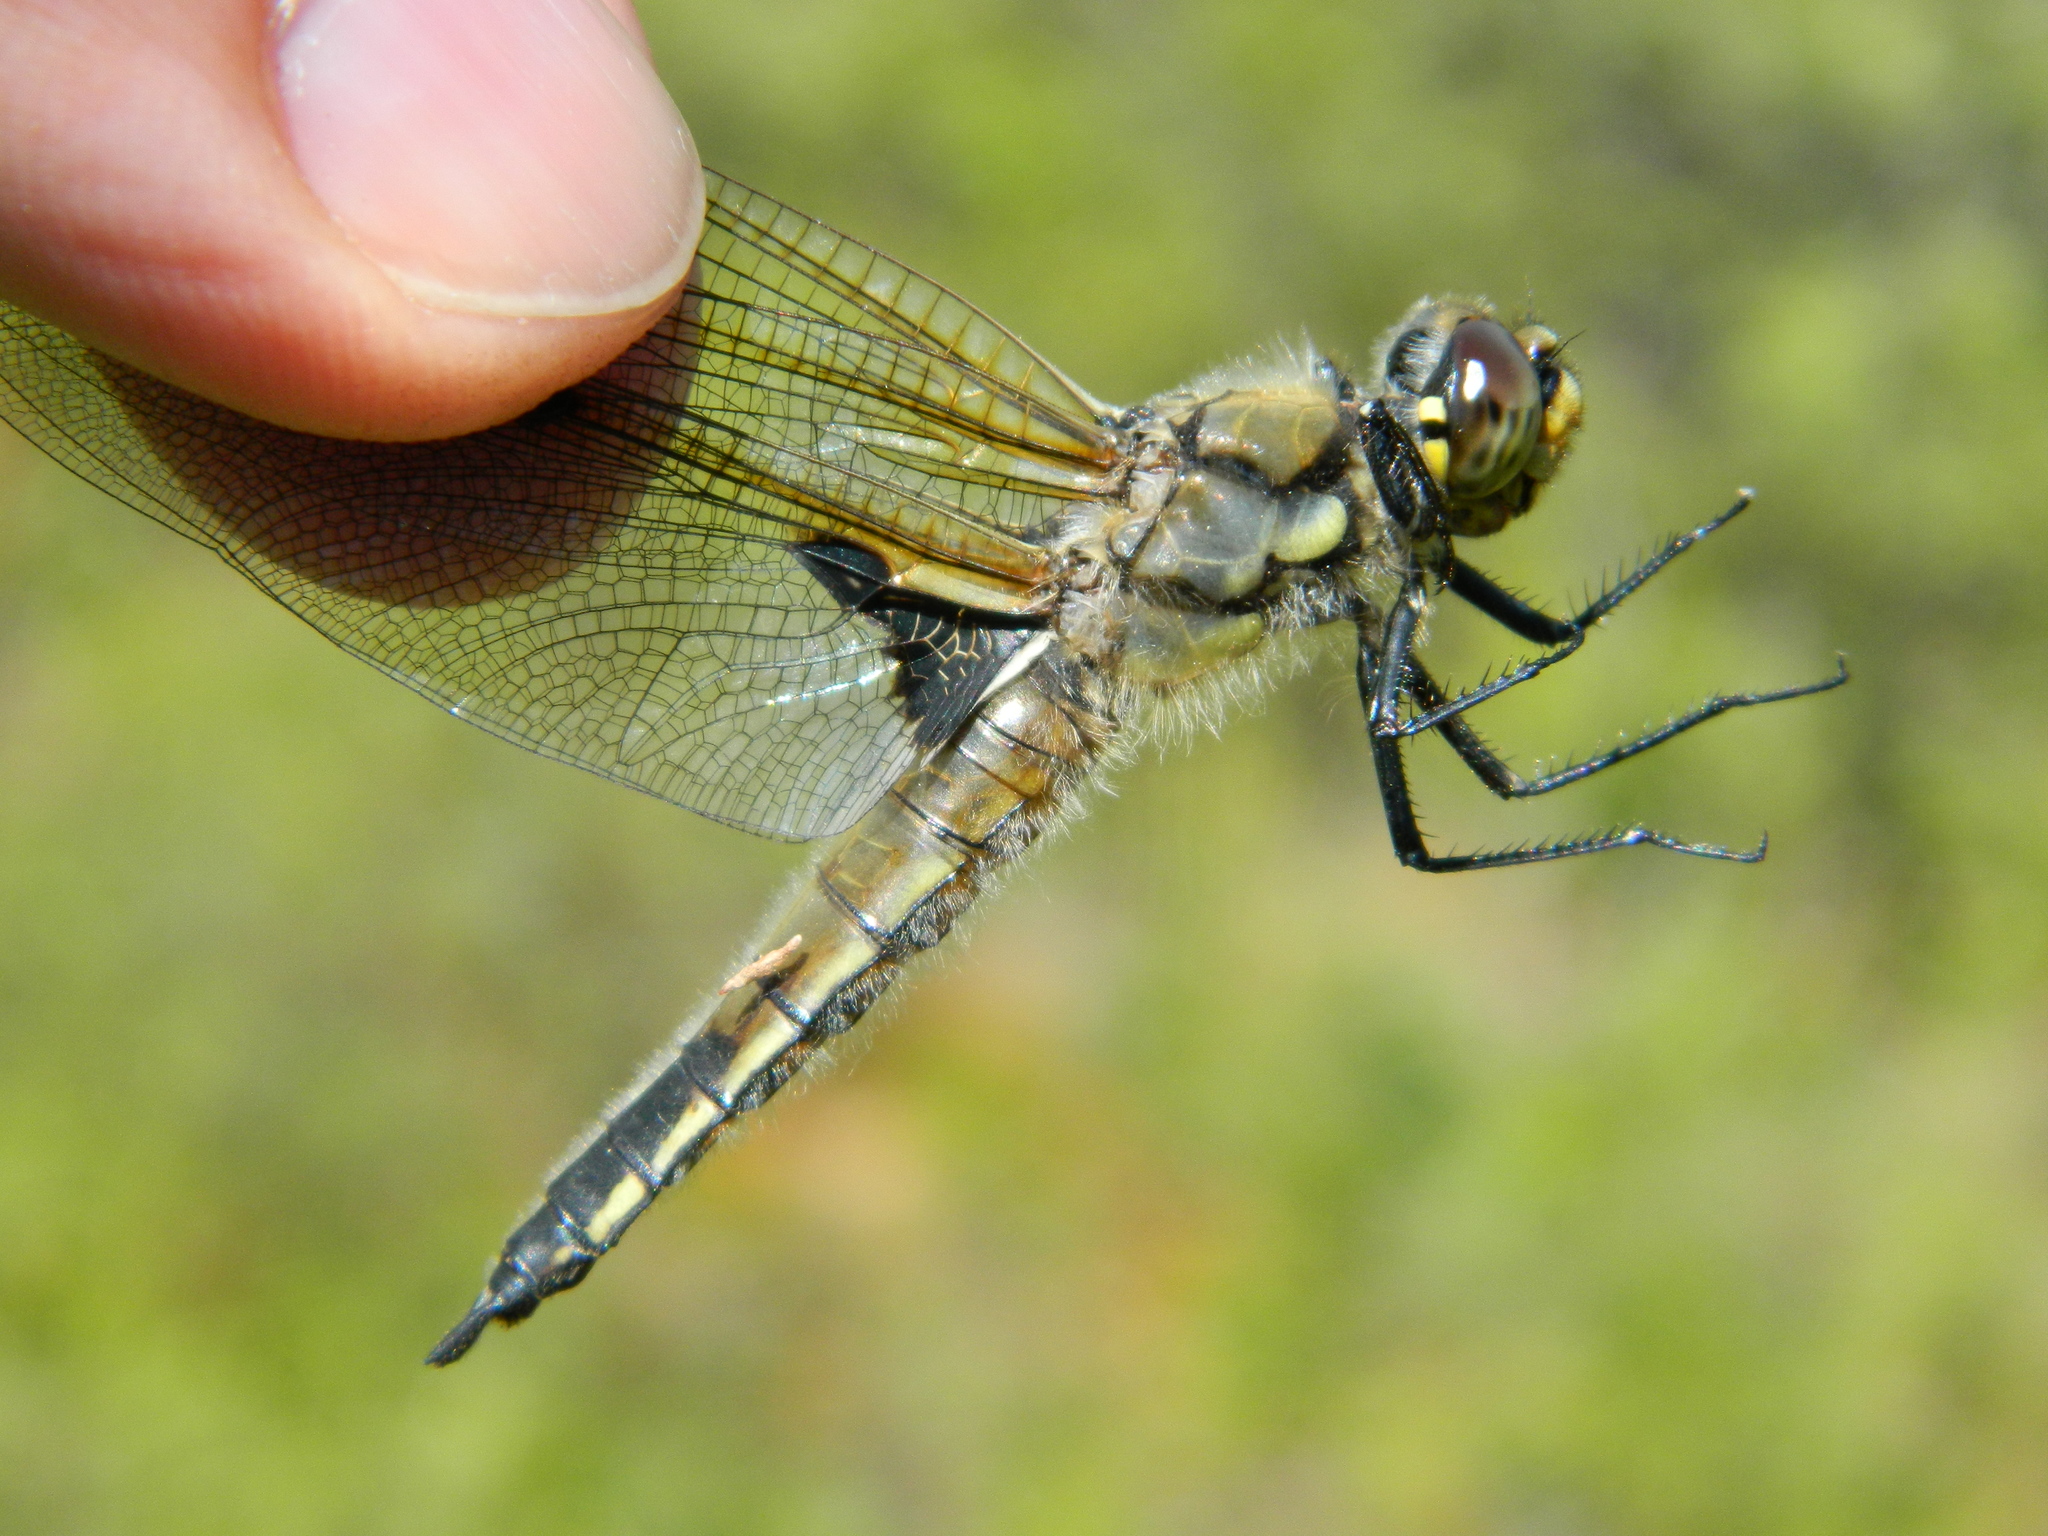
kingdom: Animalia
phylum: Arthropoda
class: Insecta
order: Odonata
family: Libellulidae
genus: Libellula
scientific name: Libellula quadrimaculata
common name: Four-spotted chaser
